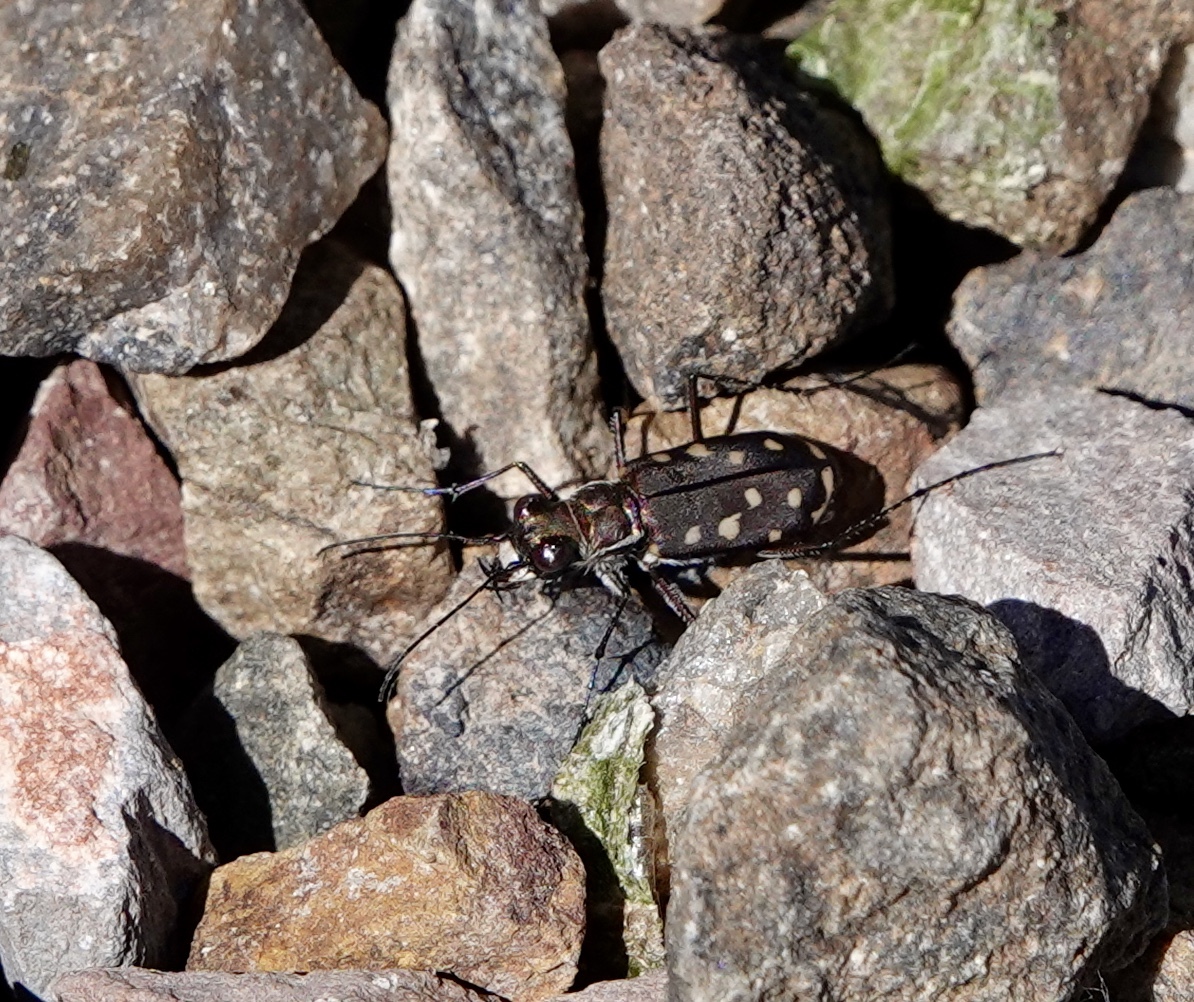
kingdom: Animalia
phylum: Arthropoda
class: Insecta
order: Coleoptera
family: Carabidae
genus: Cicindela
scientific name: Cicindela sedecimpunctata
